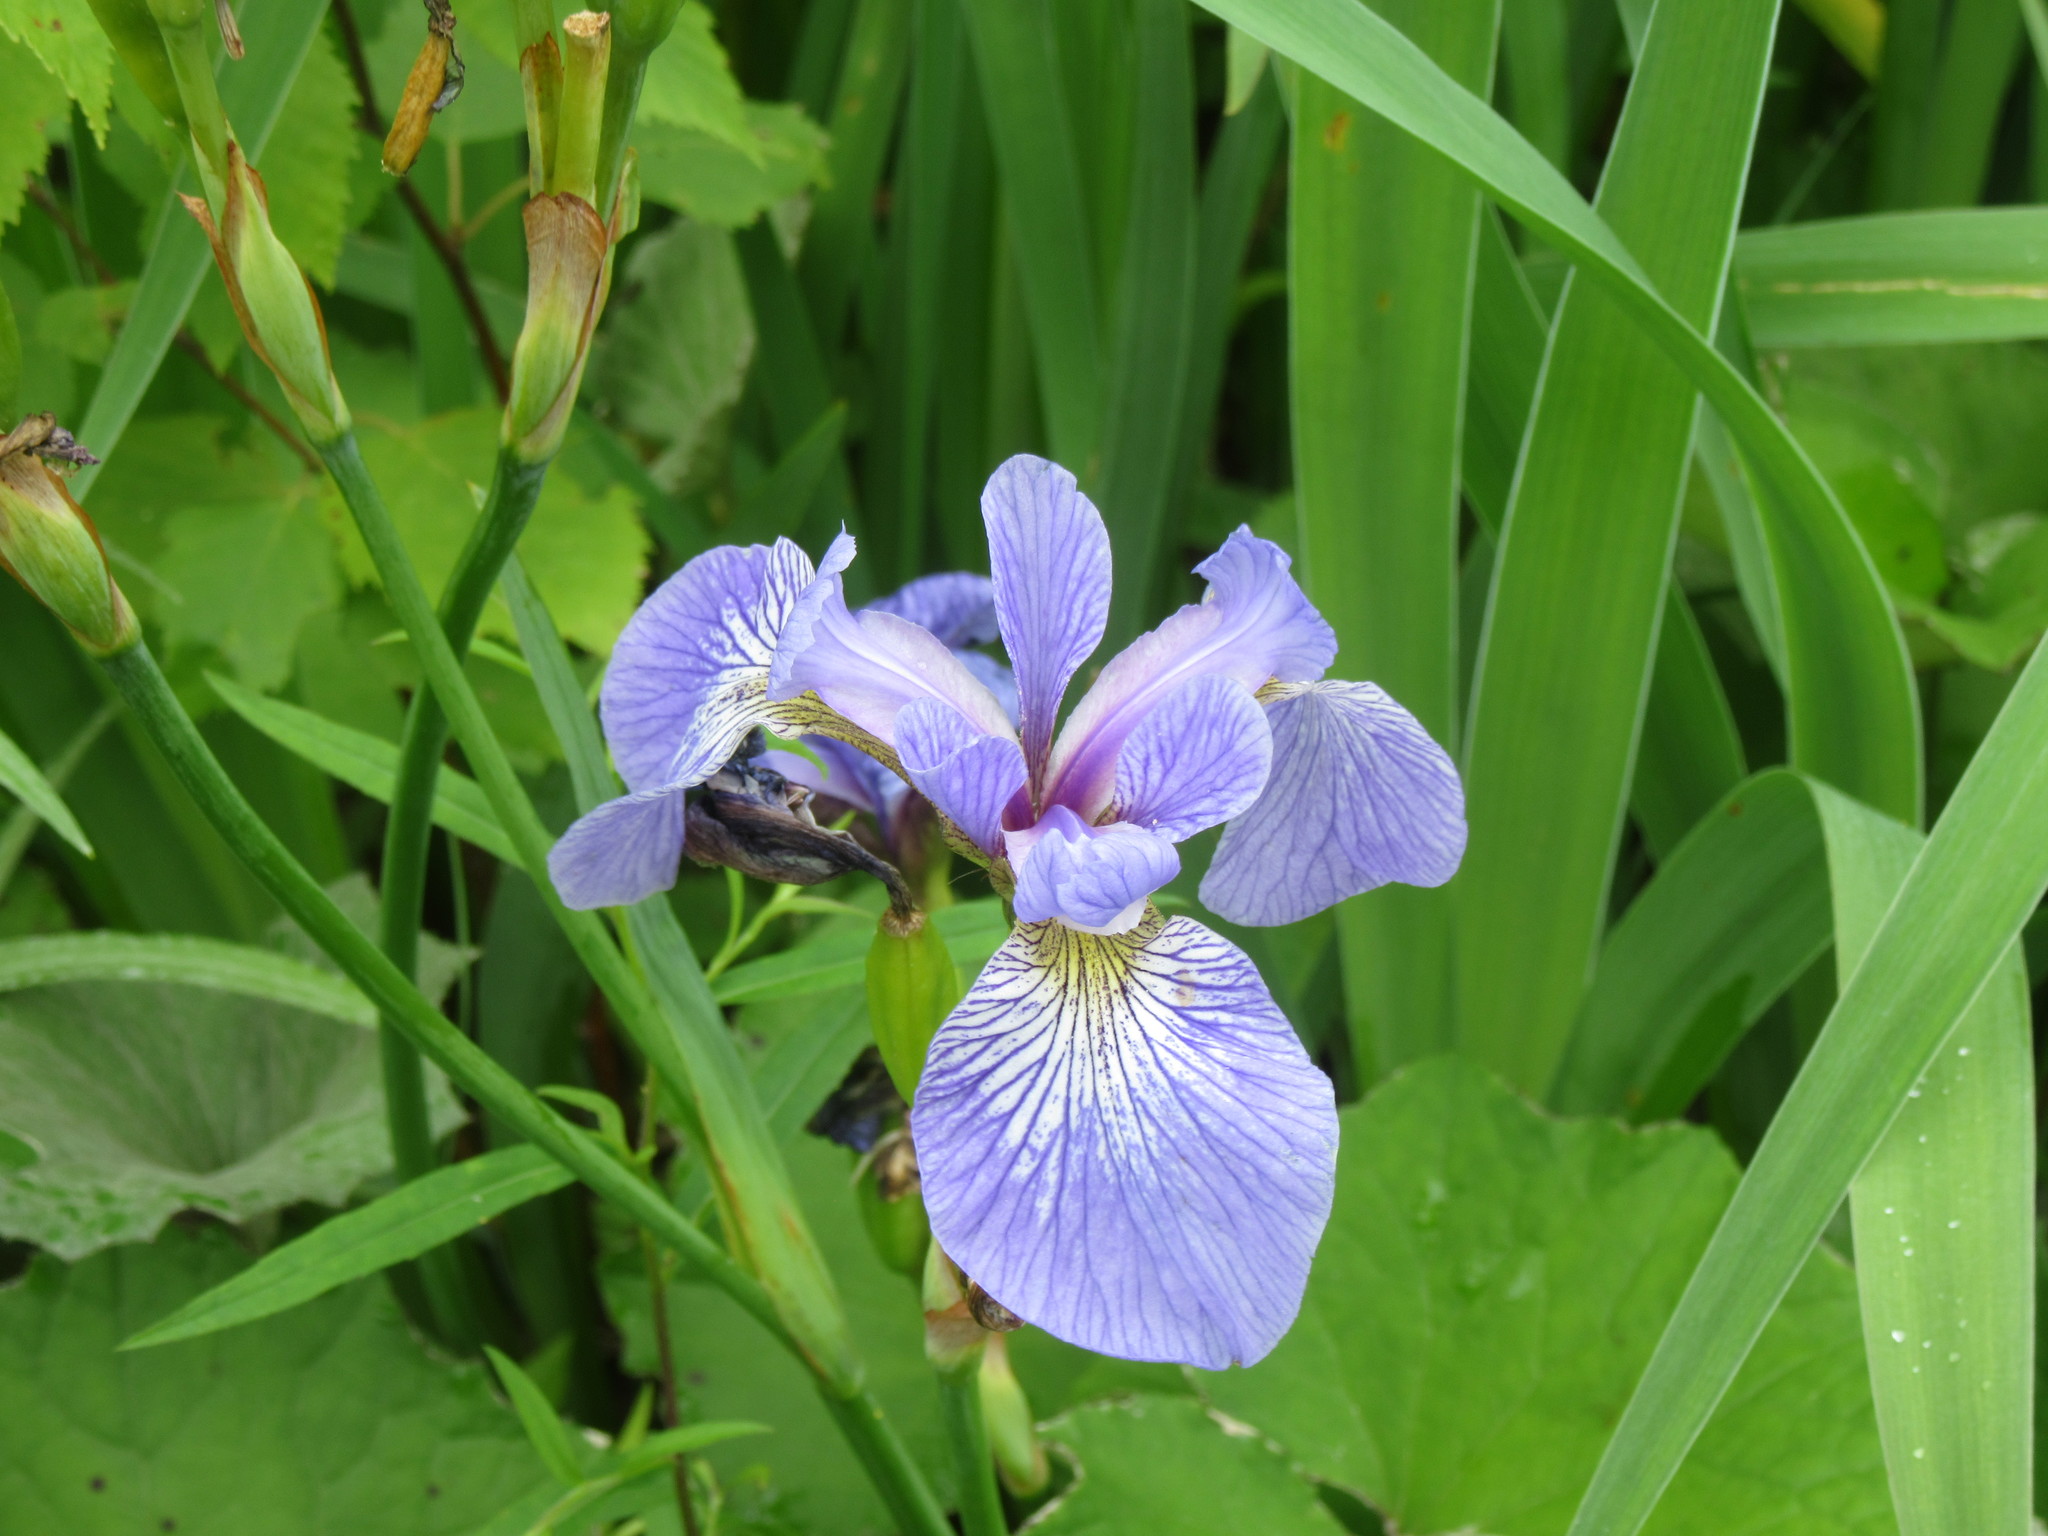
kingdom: Plantae
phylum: Tracheophyta
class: Liliopsida
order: Asparagales
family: Iridaceae
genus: Iris
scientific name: Iris versicolor
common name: Purple iris
